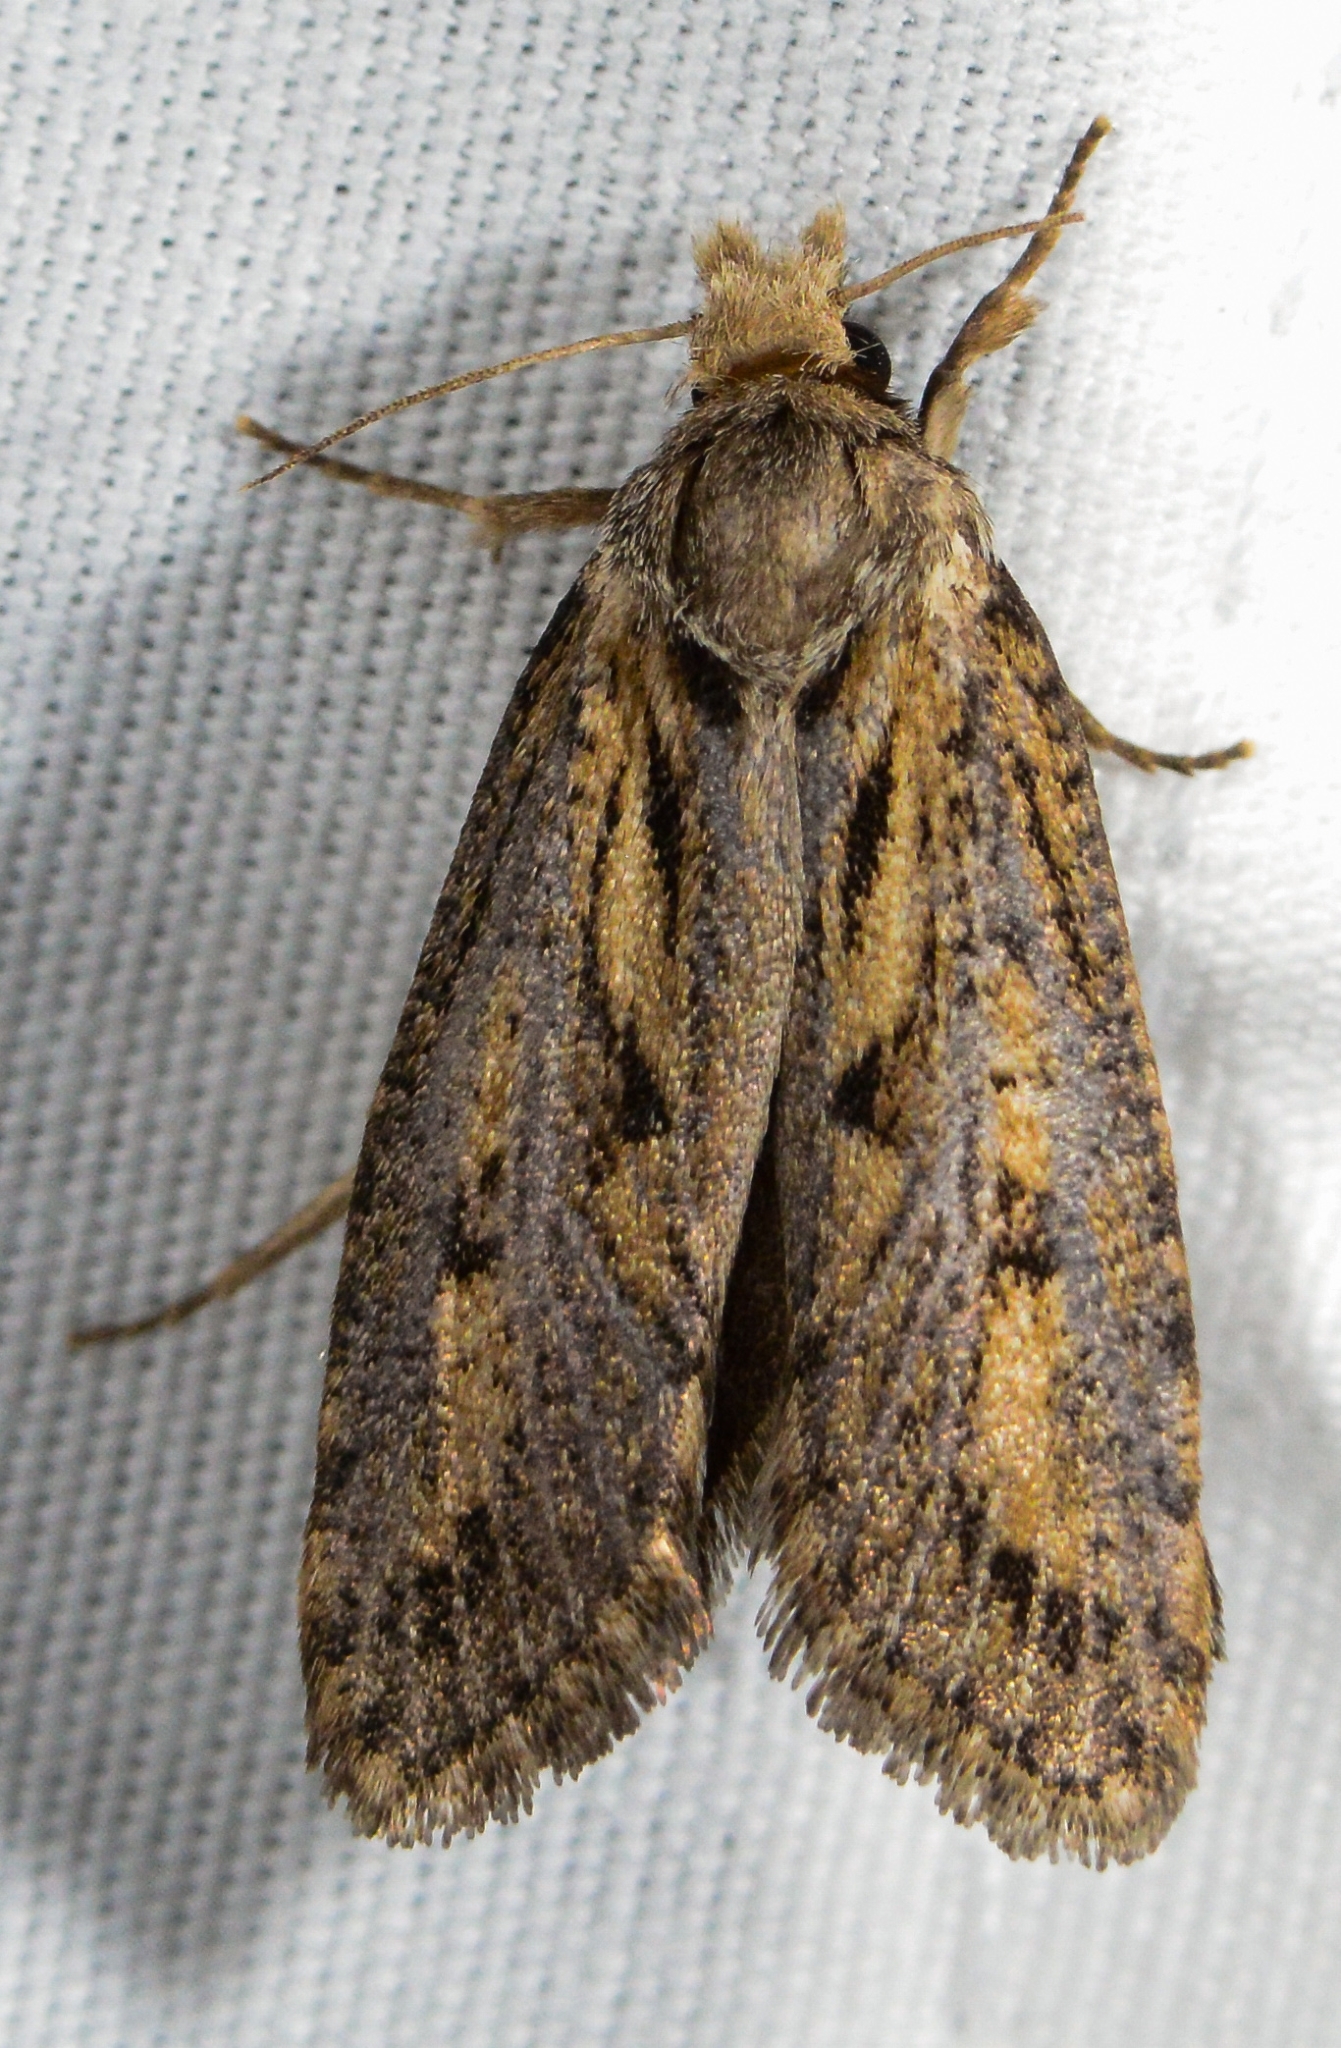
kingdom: Animalia
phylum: Arthropoda
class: Insecta
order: Lepidoptera
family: Tineidae
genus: Acrolophus
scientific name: Acrolophus popeanella
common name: Clemens' grass tubeworm moth
